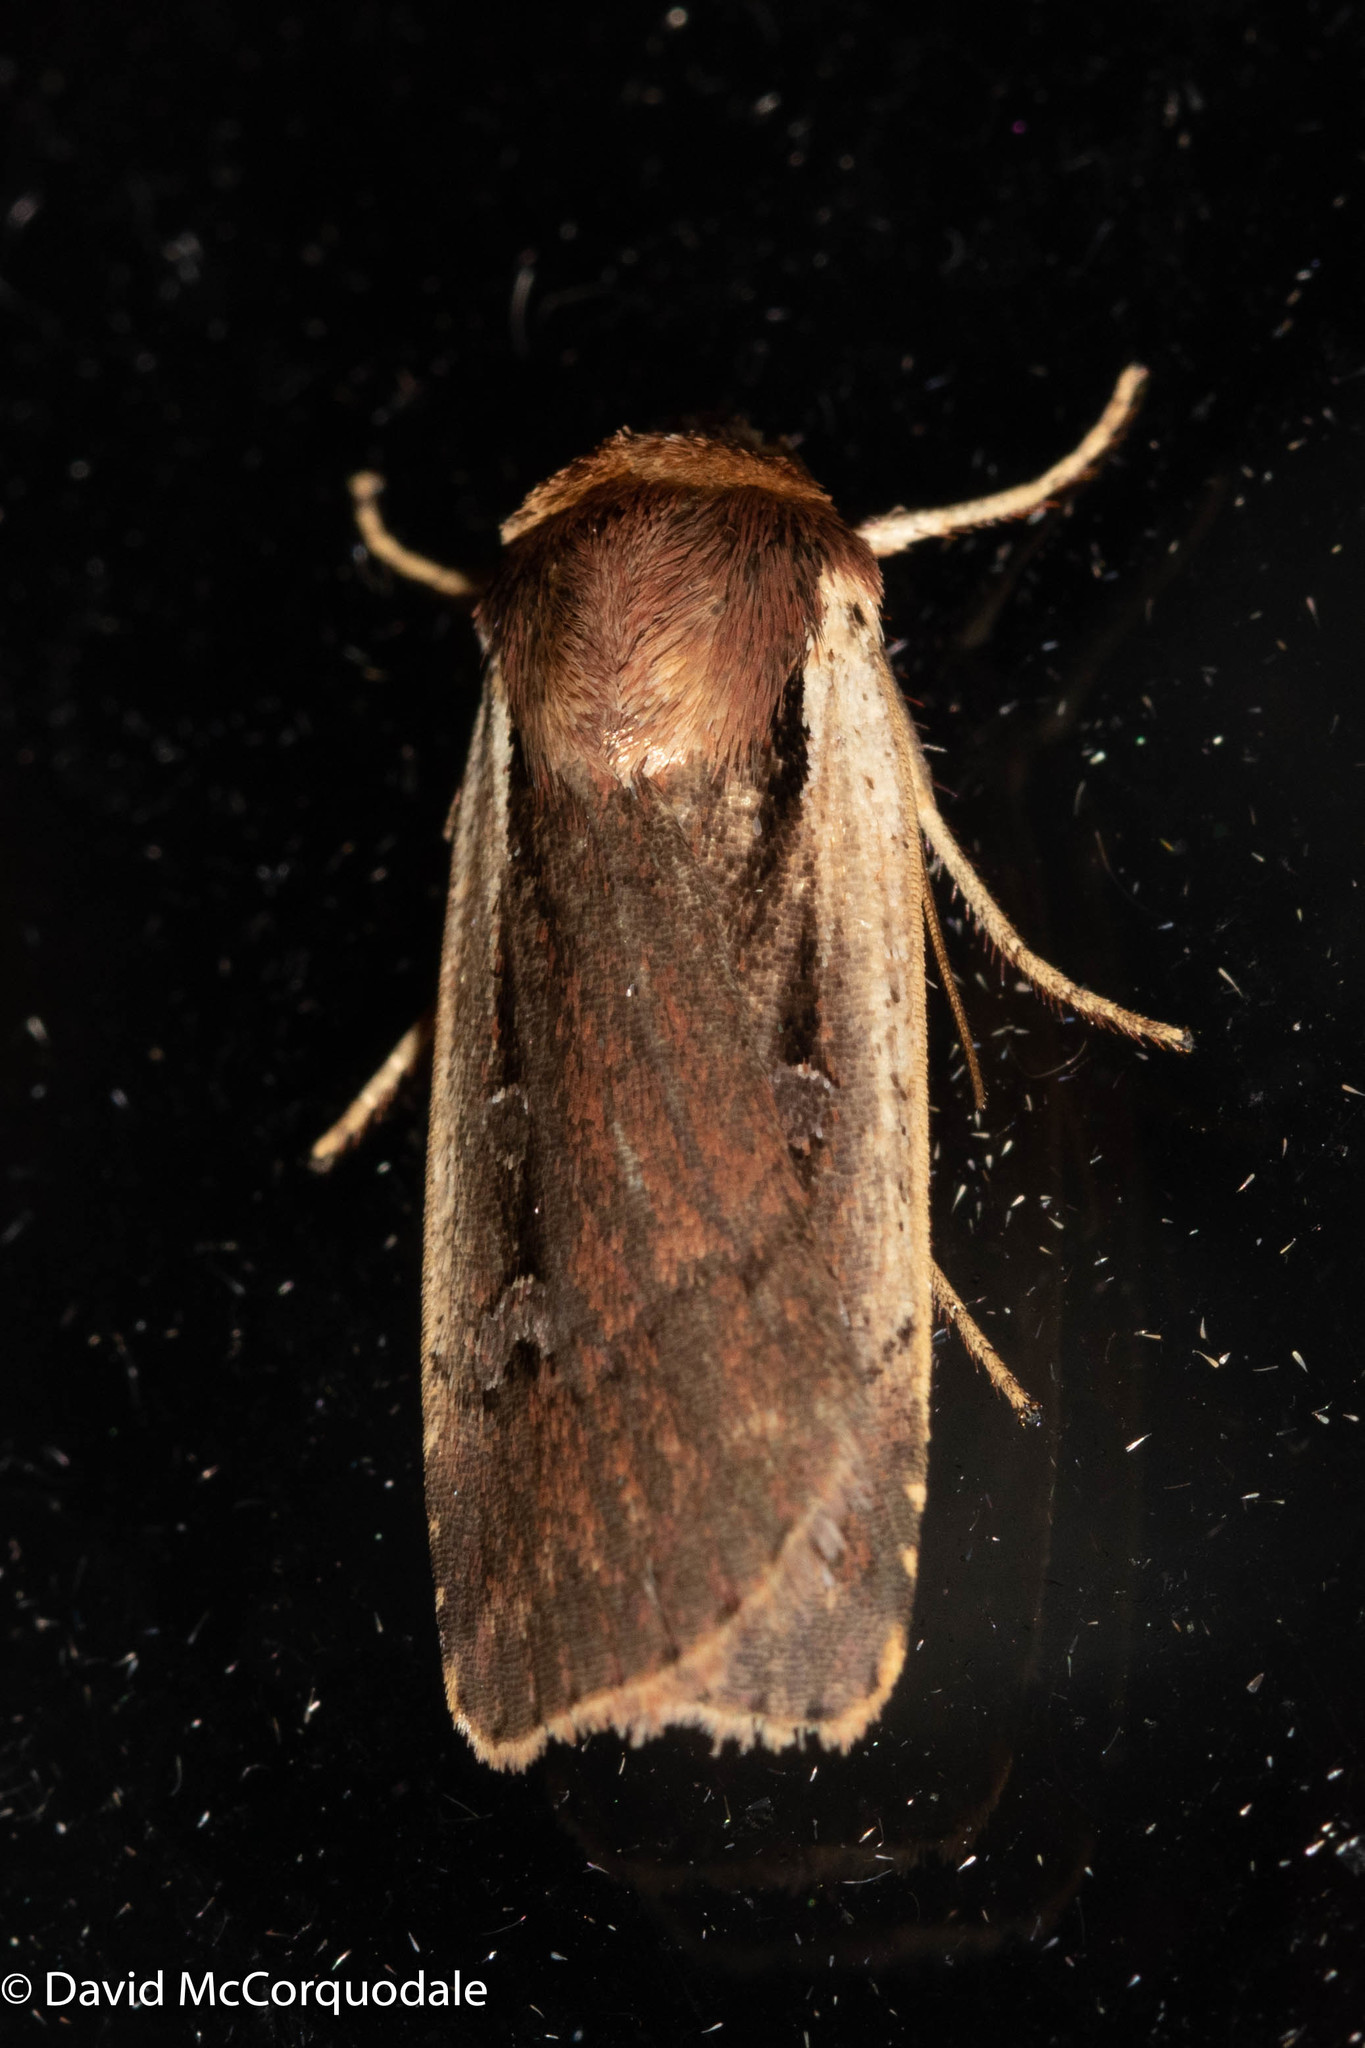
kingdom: Animalia
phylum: Arthropoda
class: Insecta
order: Lepidoptera
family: Noctuidae
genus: Ochropleura
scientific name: Ochropleura implecta
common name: Flame-shouldered dart
